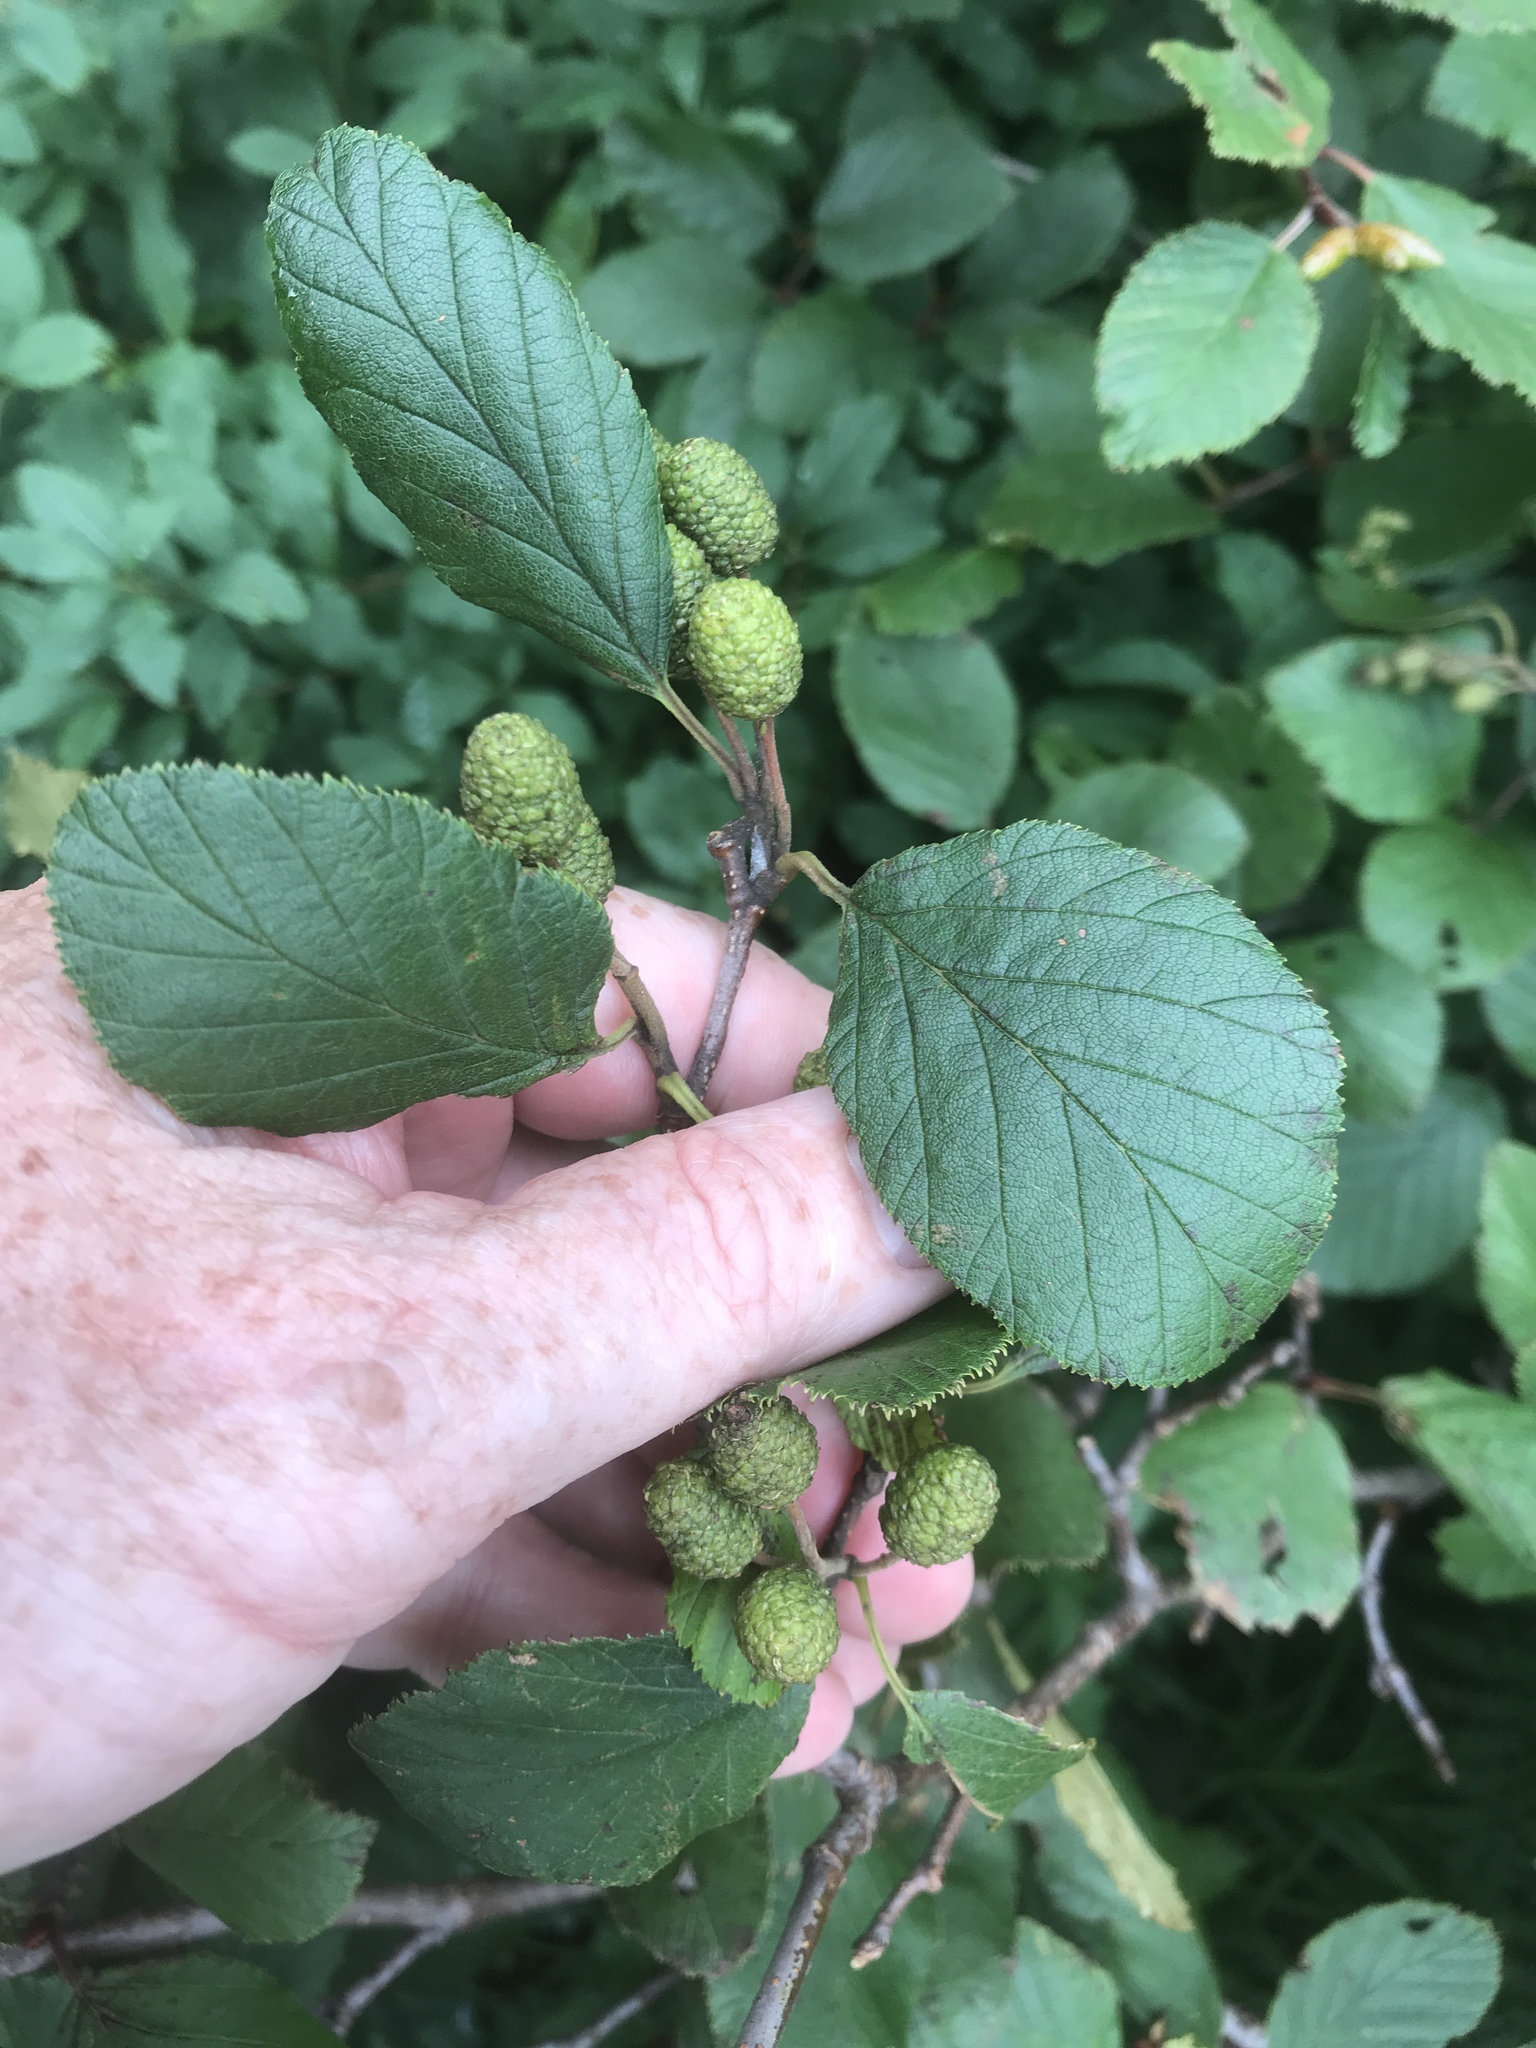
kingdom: Plantae
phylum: Tracheophyta
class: Magnoliopsida
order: Fagales
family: Betulaceae
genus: Alnus
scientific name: Alnus alnobetula
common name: Green alder
